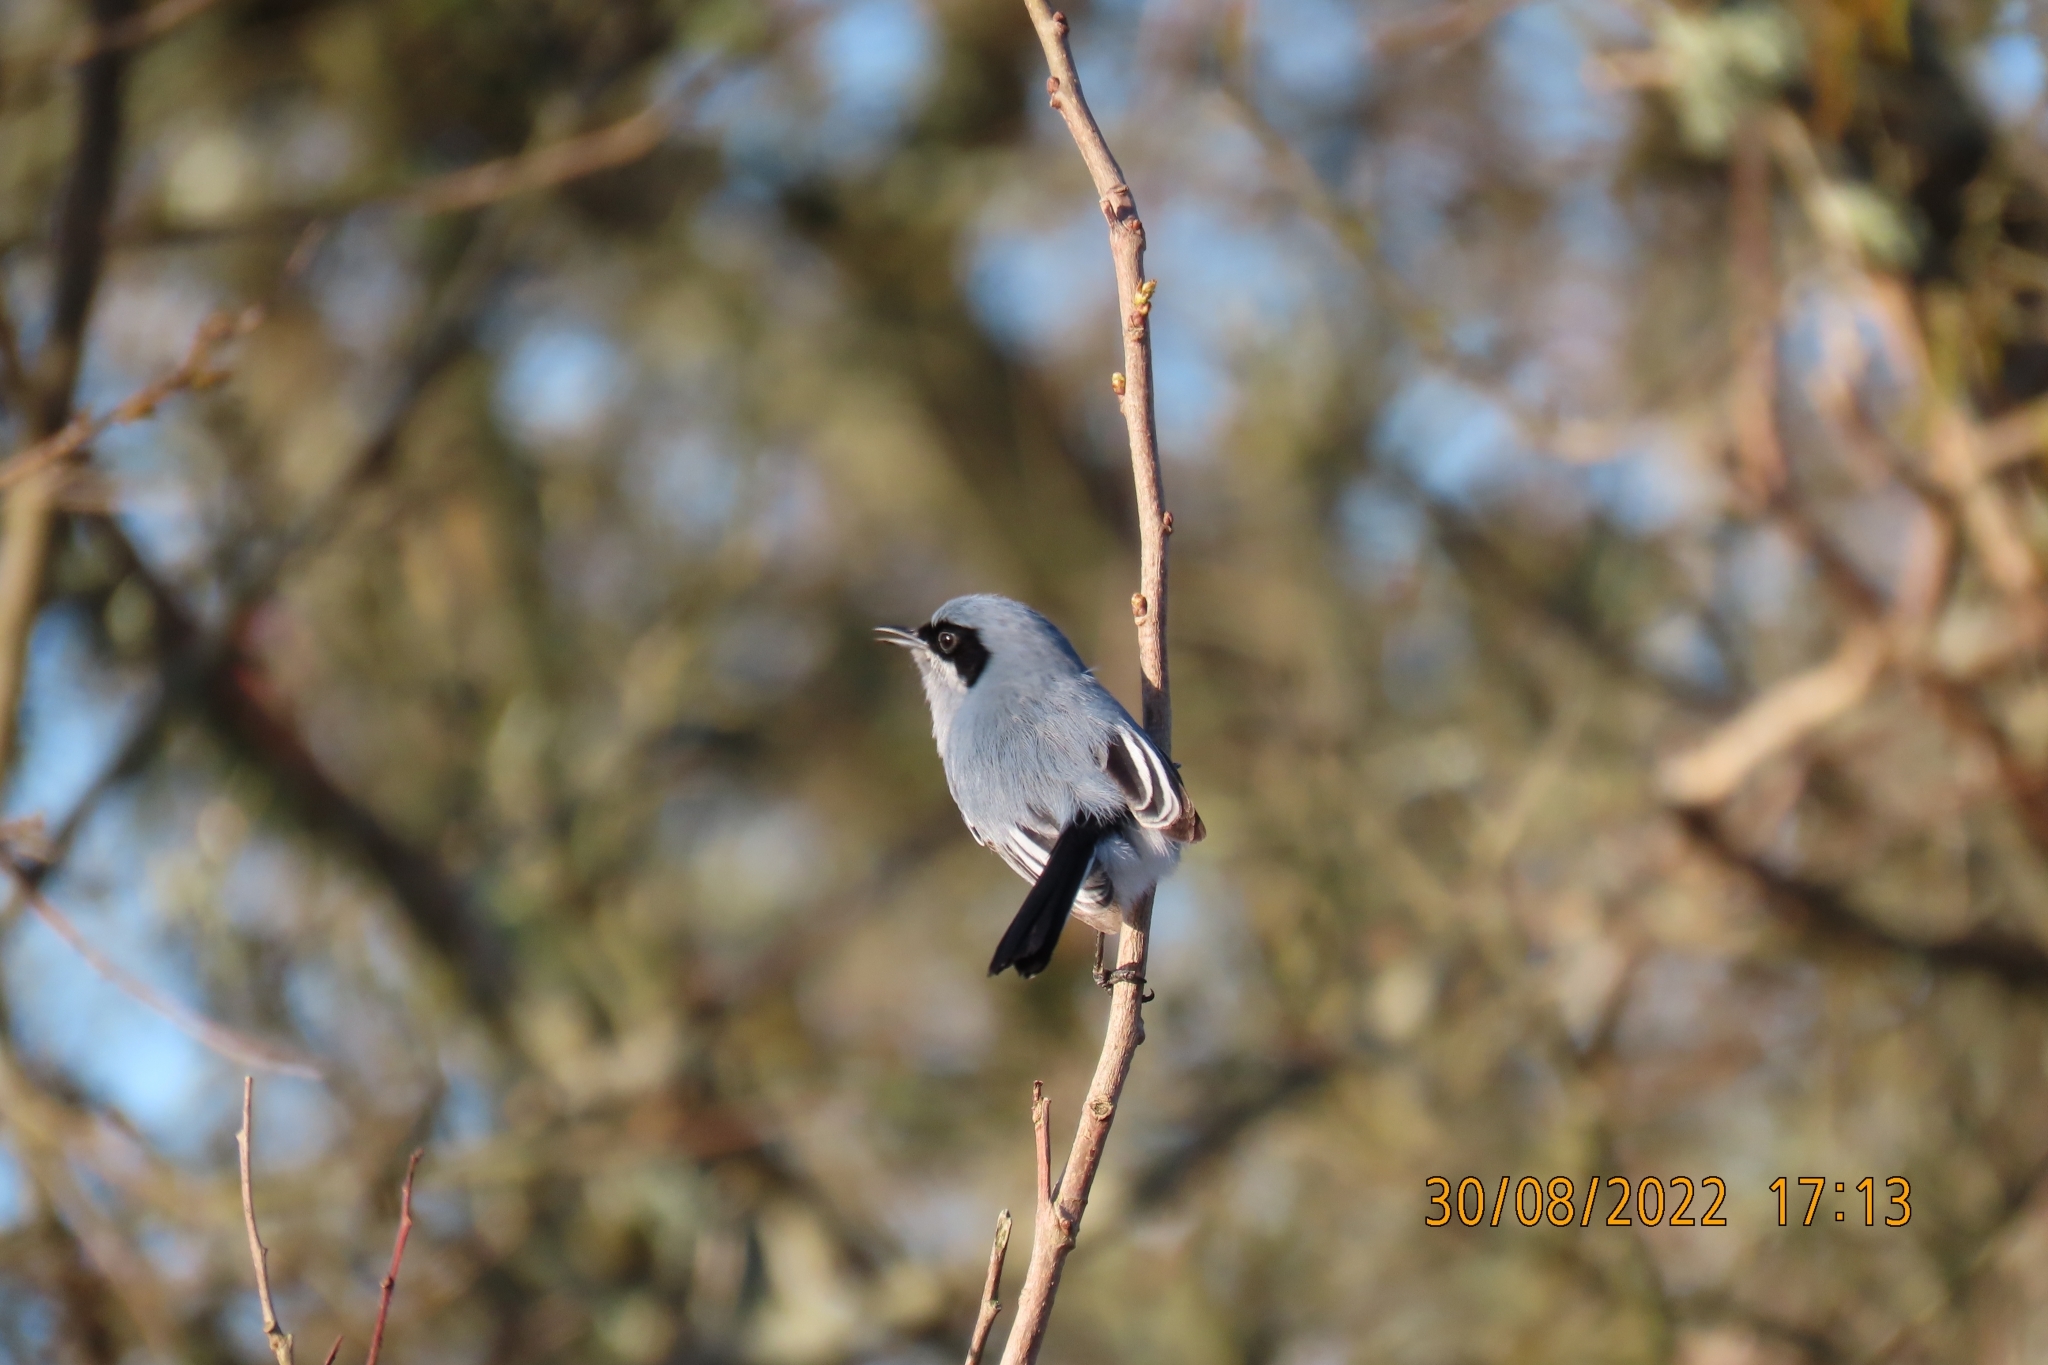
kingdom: Animalia
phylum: Chordata
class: Aves
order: Passeriformes
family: Polioptilidae
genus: Polioptila
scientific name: Polioptila dumicola
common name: Masked gnatcatcher
